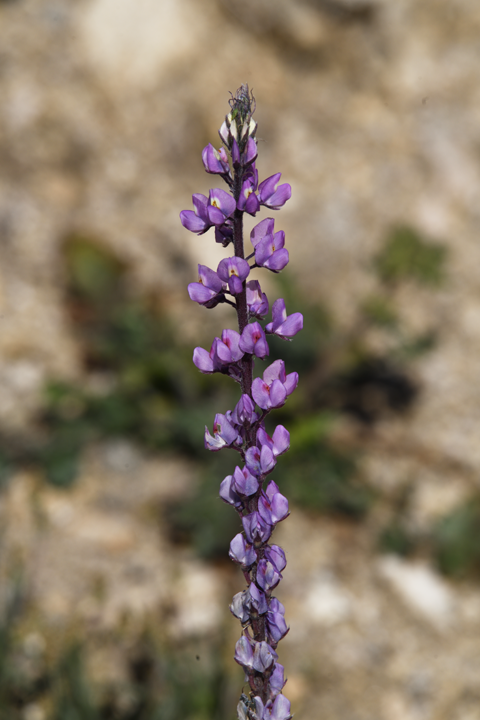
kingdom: Plantae
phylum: Tracheophyta
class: Magnoliopsida
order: Fabales
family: Fabaceae
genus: Lupinus
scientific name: Lupinus arizonicus
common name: Arizona lupine
